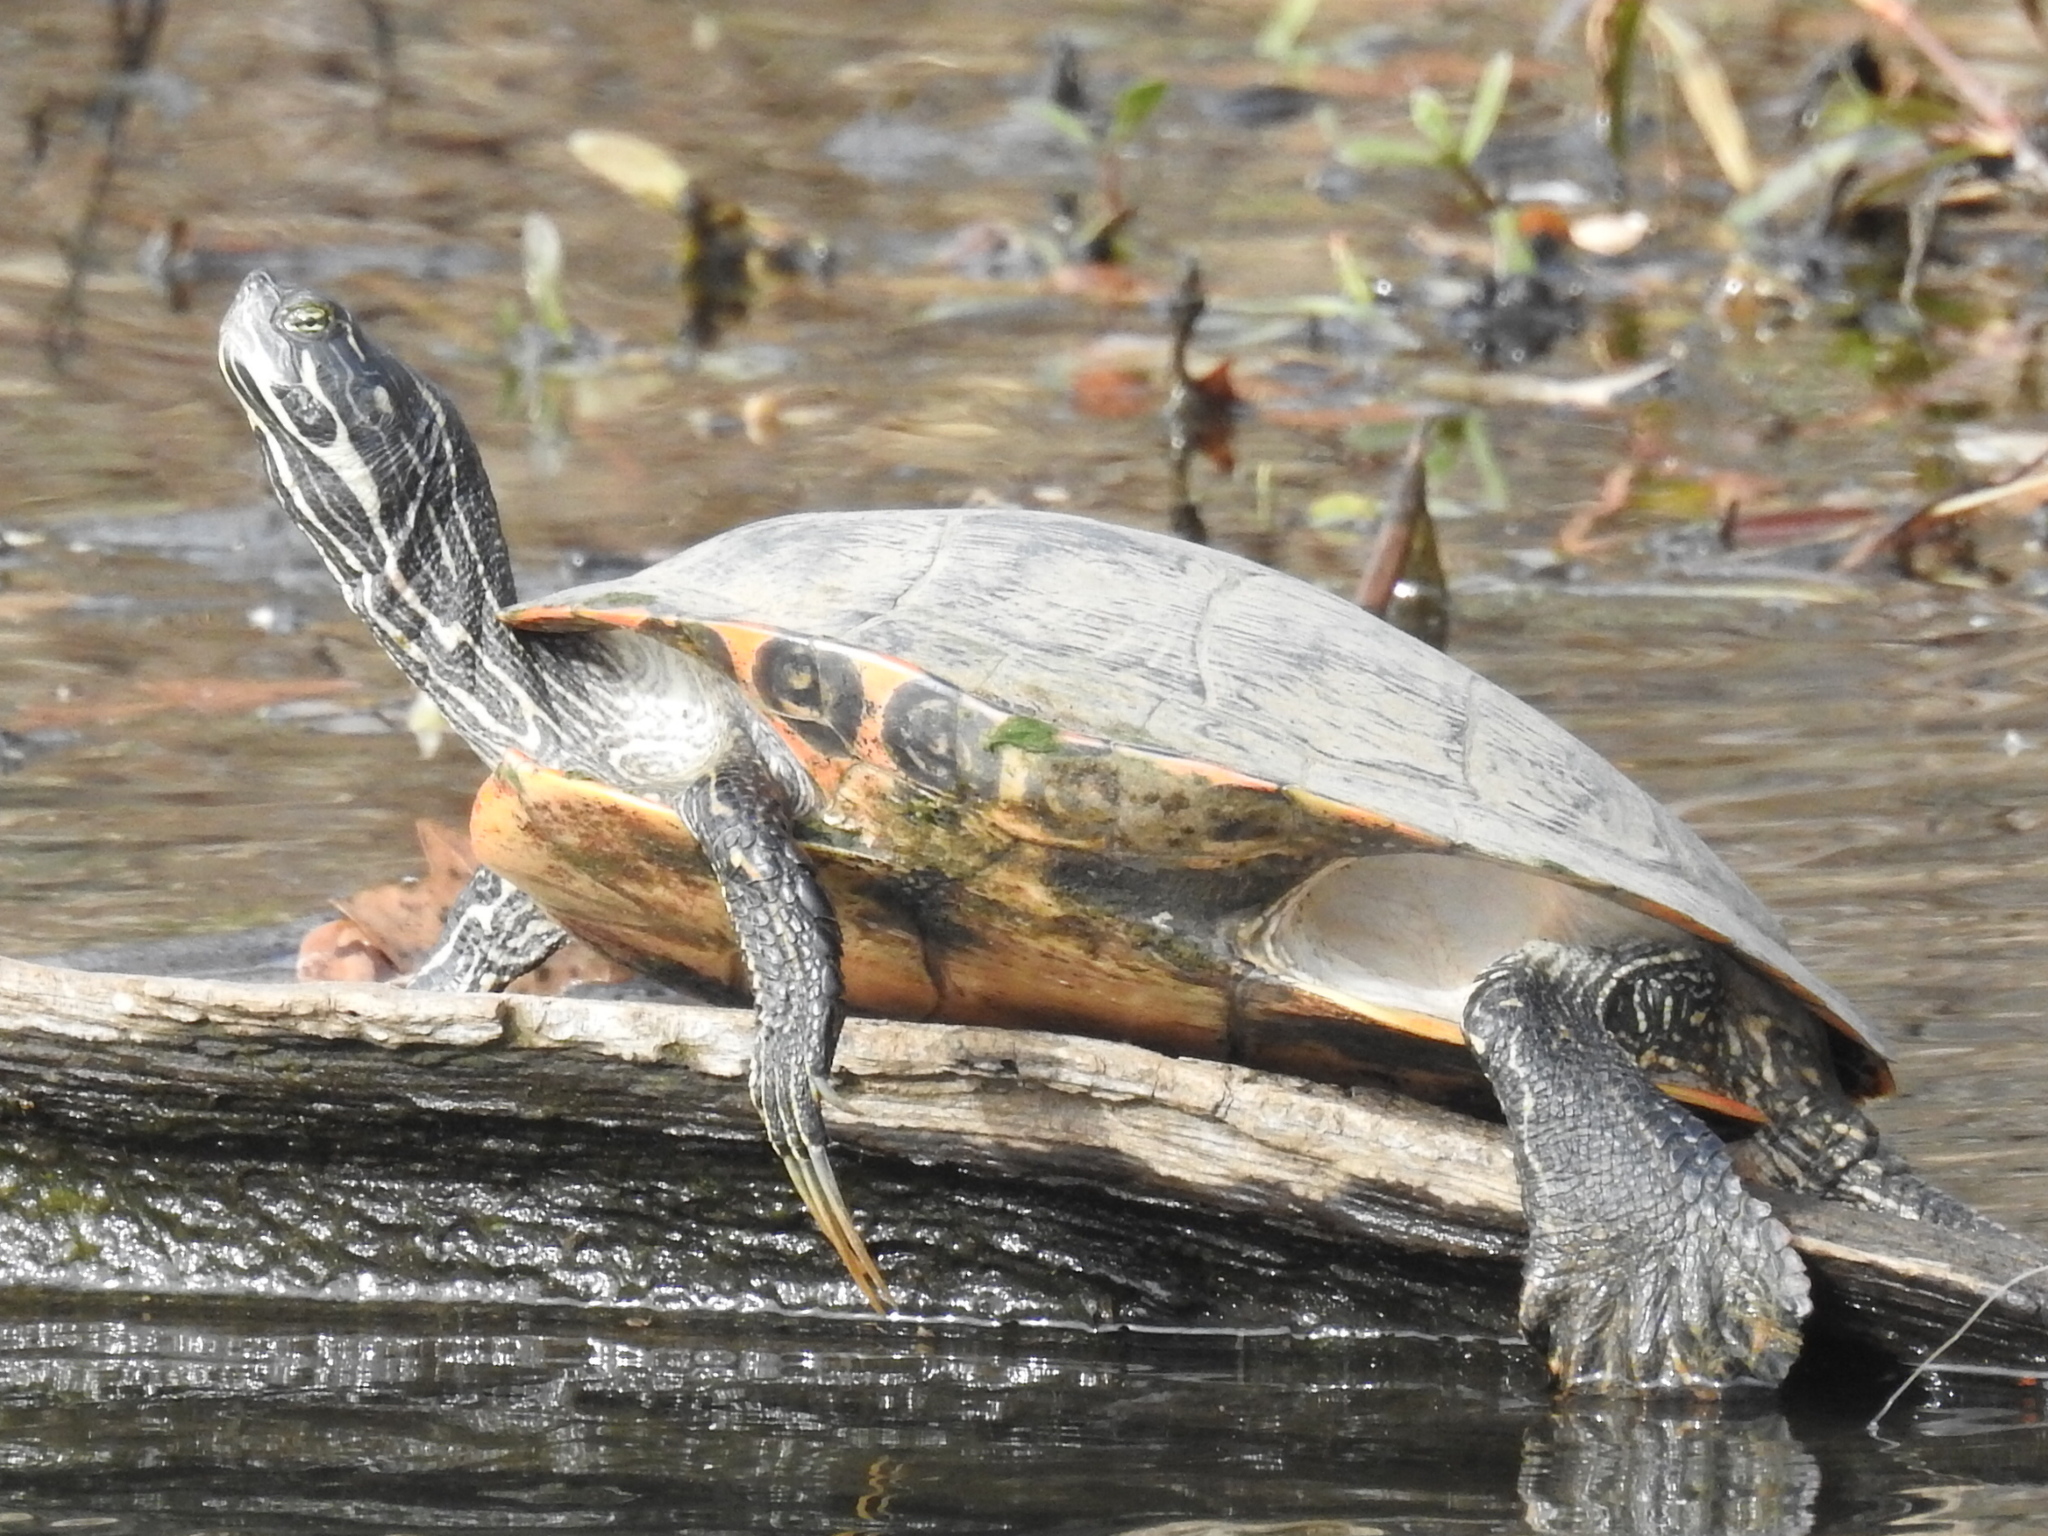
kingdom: Animalia
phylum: Chordata
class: Testudines
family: Emydidae
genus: Pseudemys
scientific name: Pseudemys concinna
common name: Eastern river cooter
